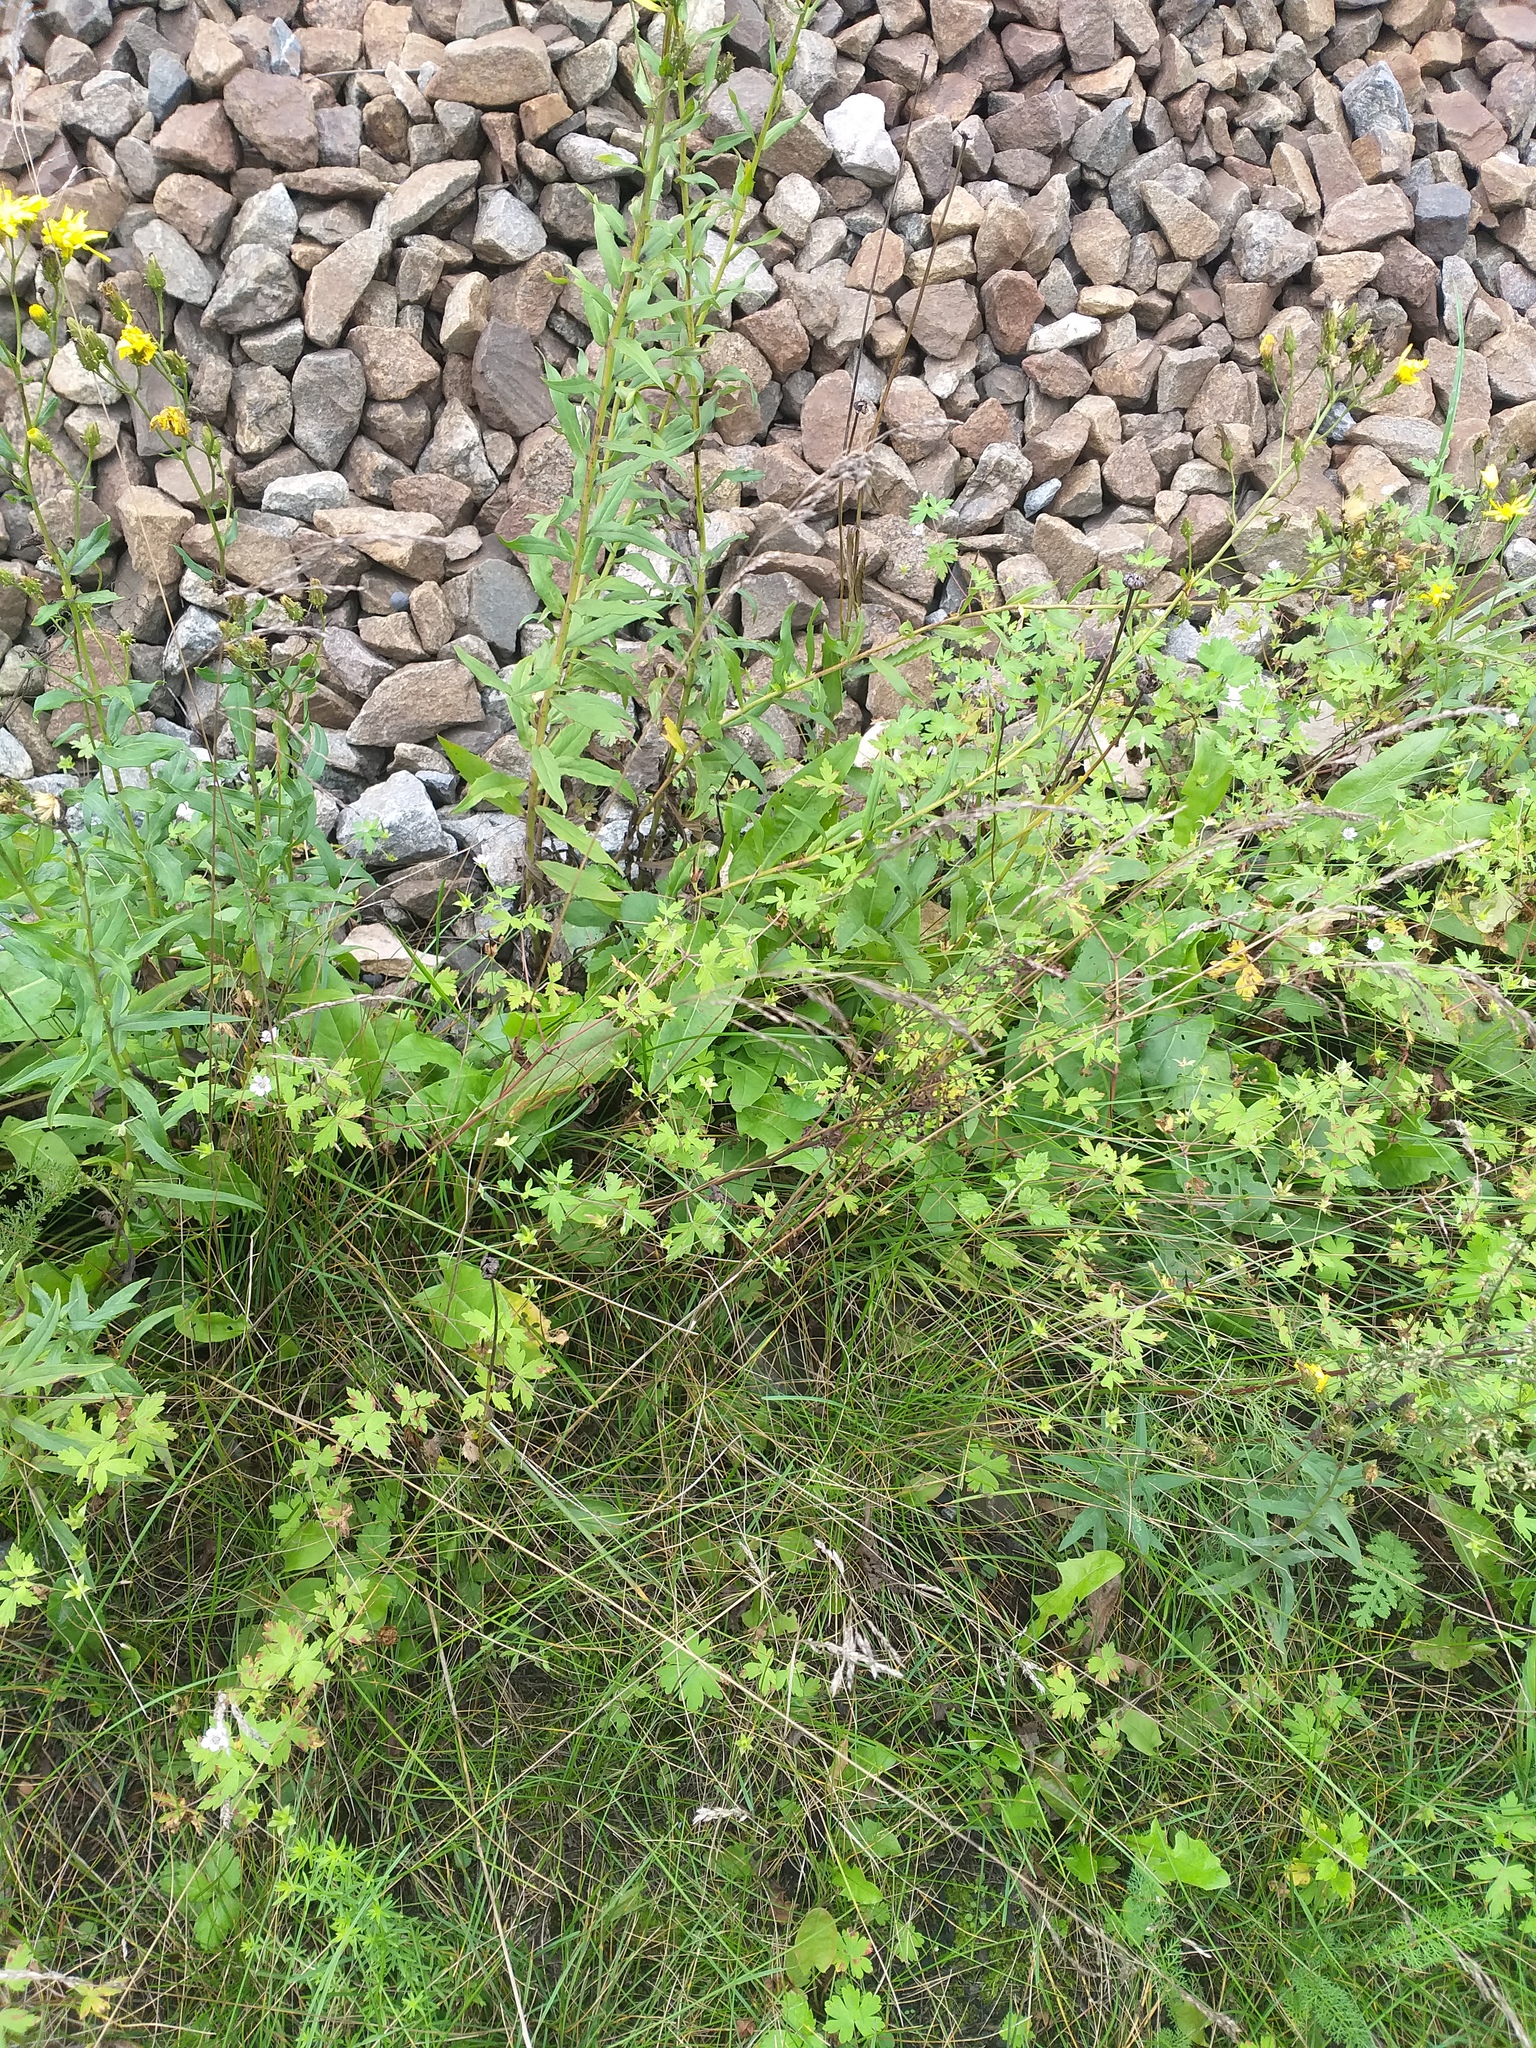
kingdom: Plantae
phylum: Tracheophyta
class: Liliopsida
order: Poales
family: Poaceae
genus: Poa
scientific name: Poa angustifolia
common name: Narrow-leaved meadow-grass
